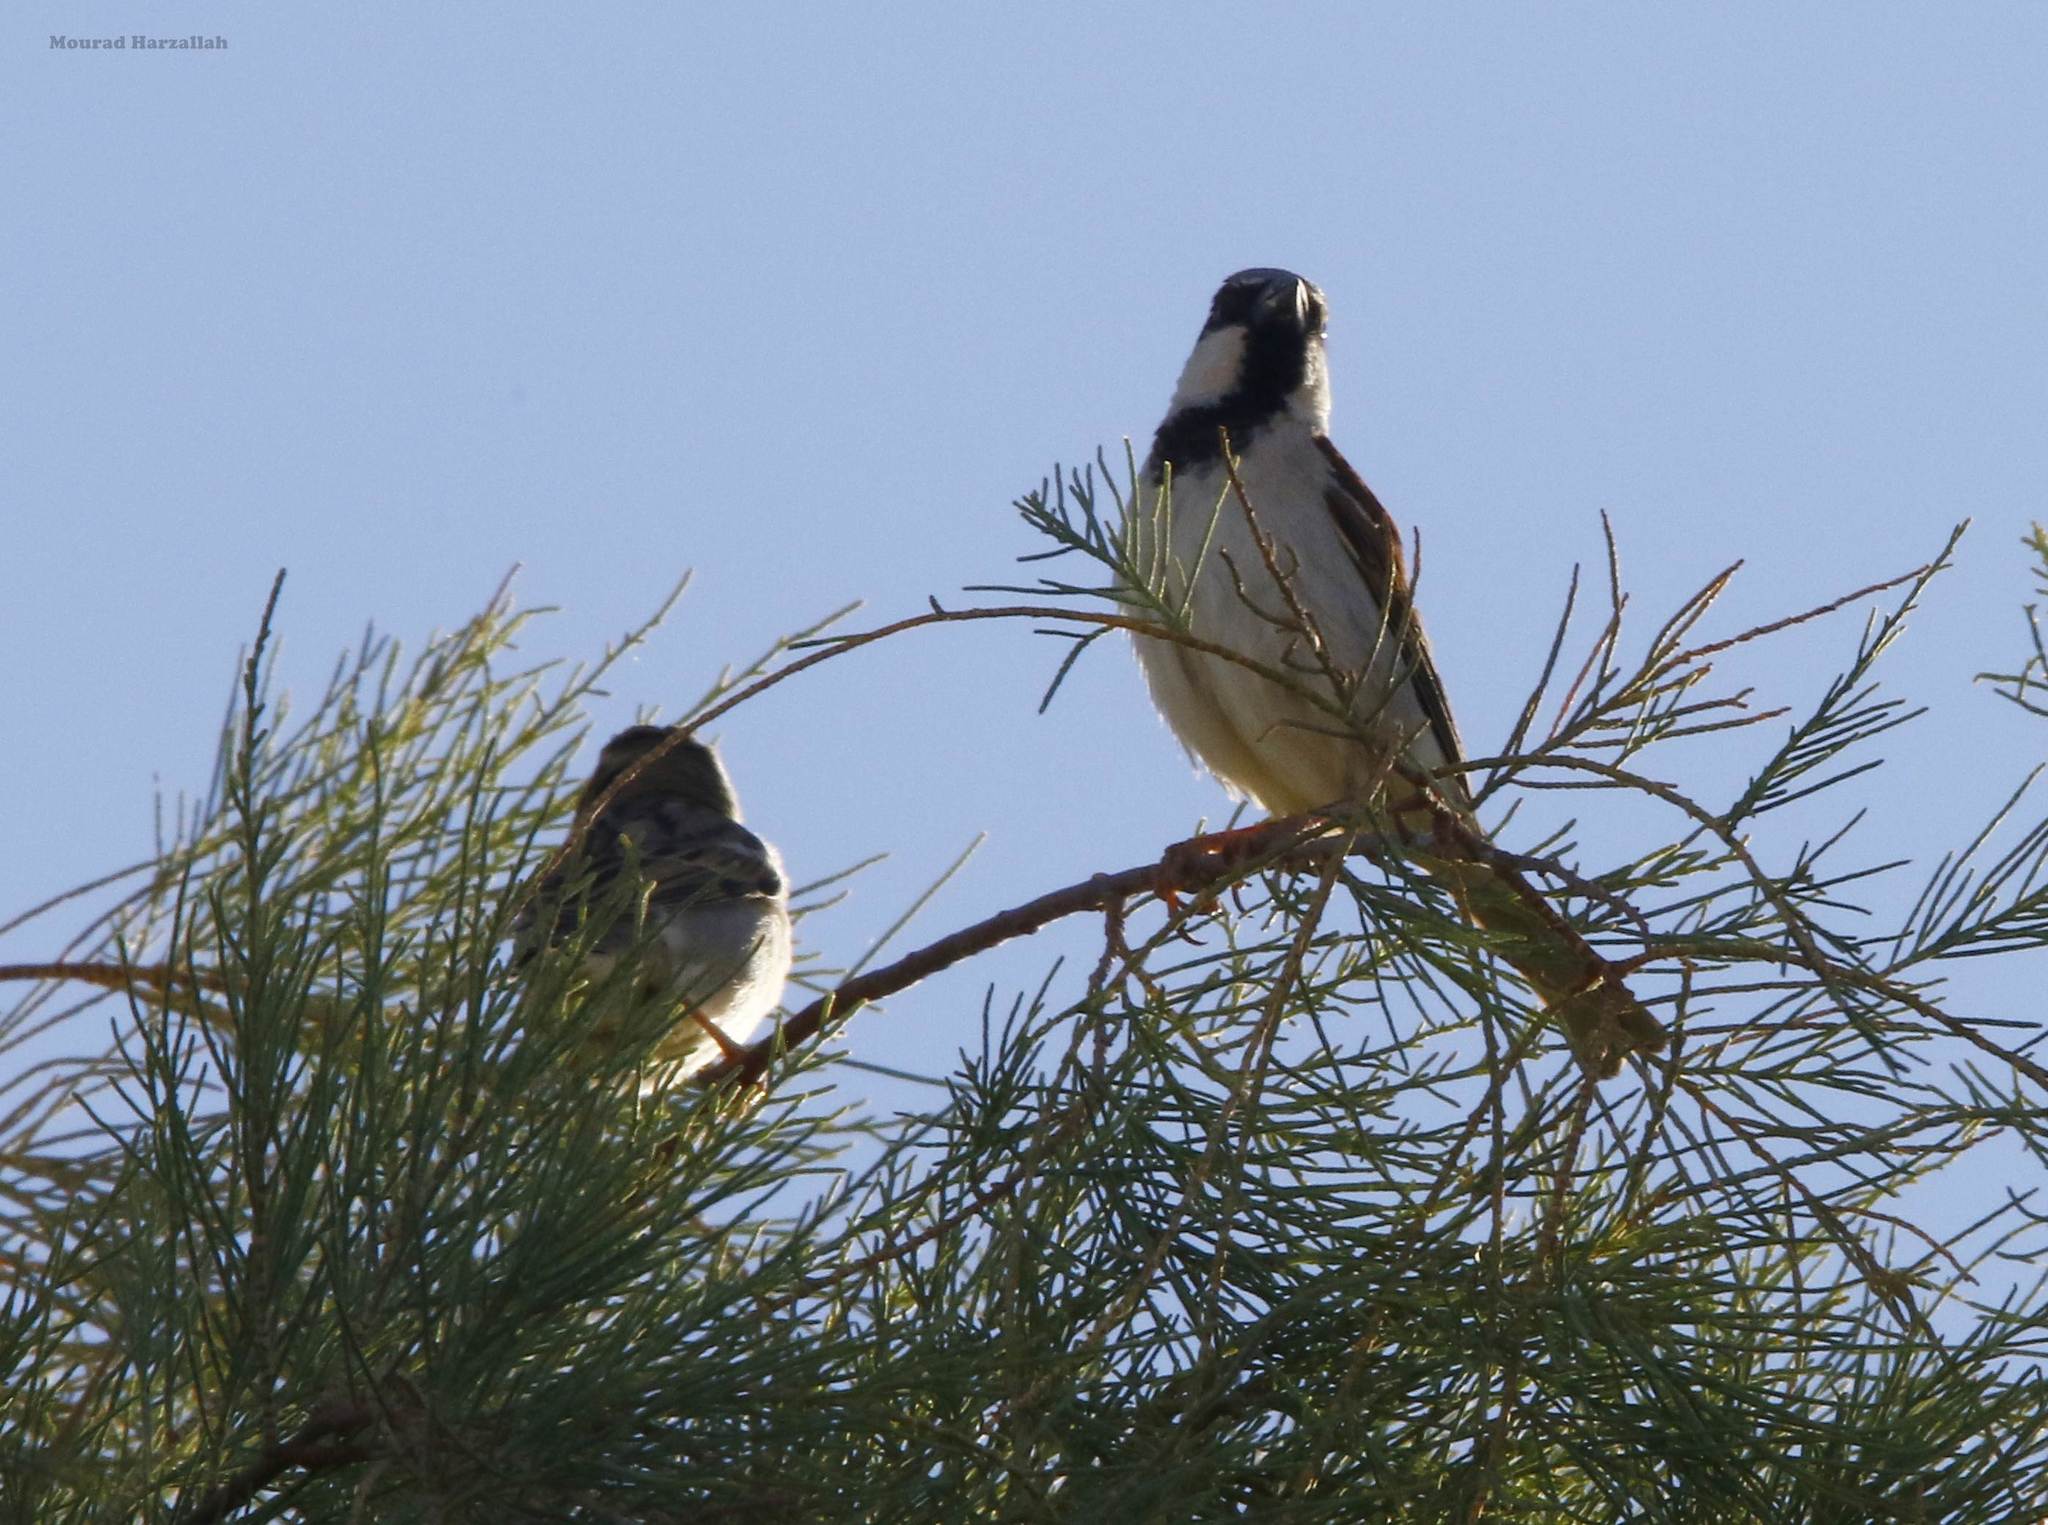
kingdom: Animalia
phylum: Chordata
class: Aves
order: Passeriformes
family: Passeridae
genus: Passer
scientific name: Passer domesticus
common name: House sparrow
